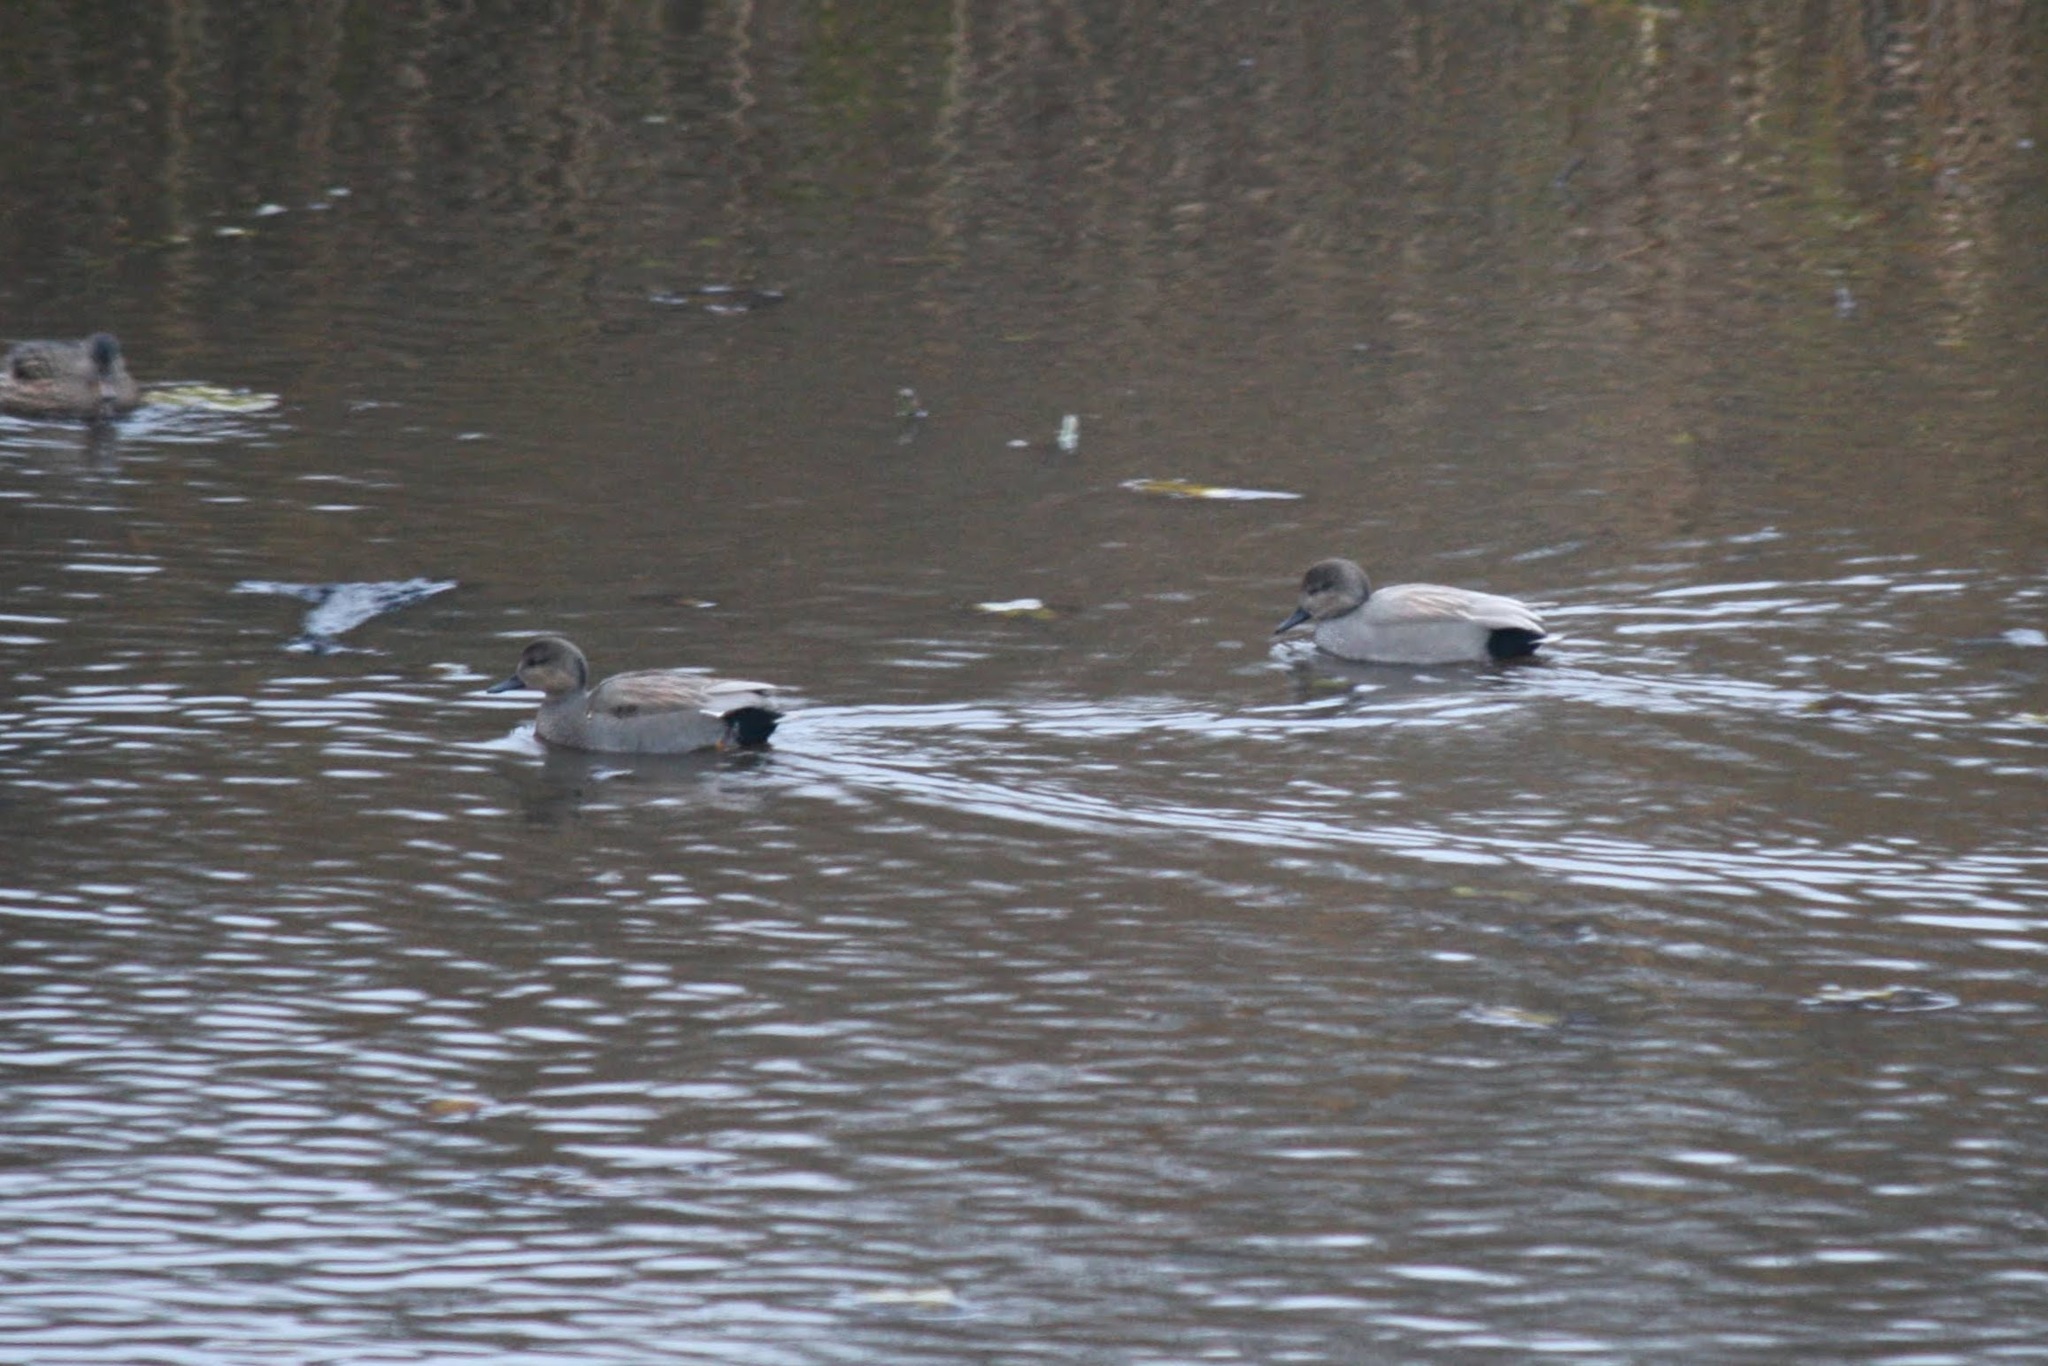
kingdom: Animalia
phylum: Chordata
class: Aves
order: Anseriformes
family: Anatidae
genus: Mareca
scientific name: Mareca strepera
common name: Gadwall
